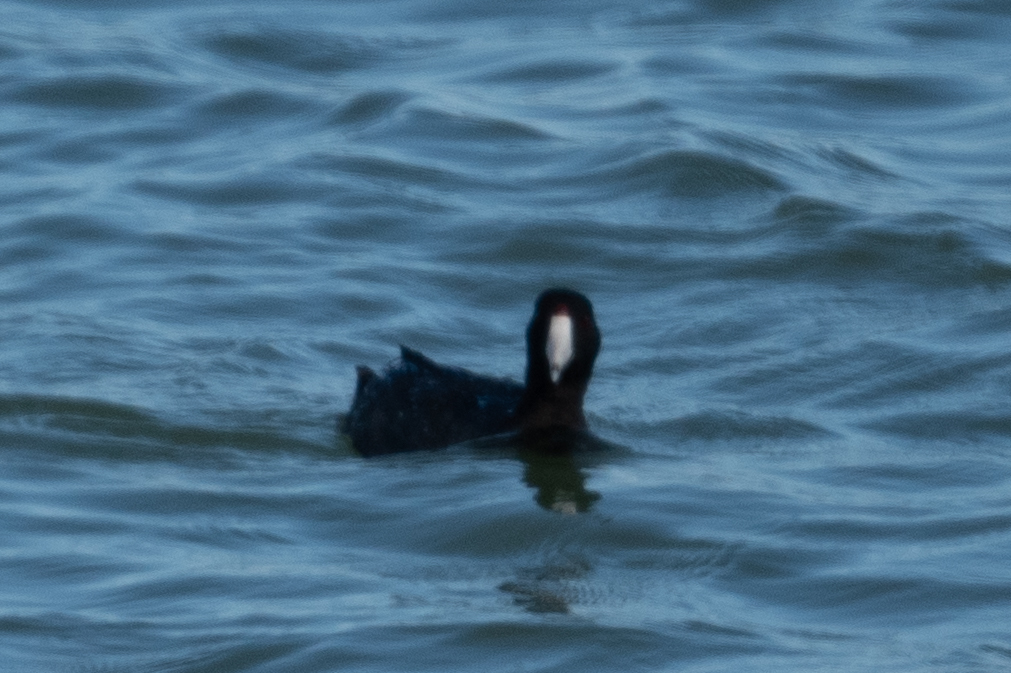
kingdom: Animalia
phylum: Chordata
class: Aves
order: Gruiformes
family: Rallidae
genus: Fulica
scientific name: Fulica americana
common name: American coot
